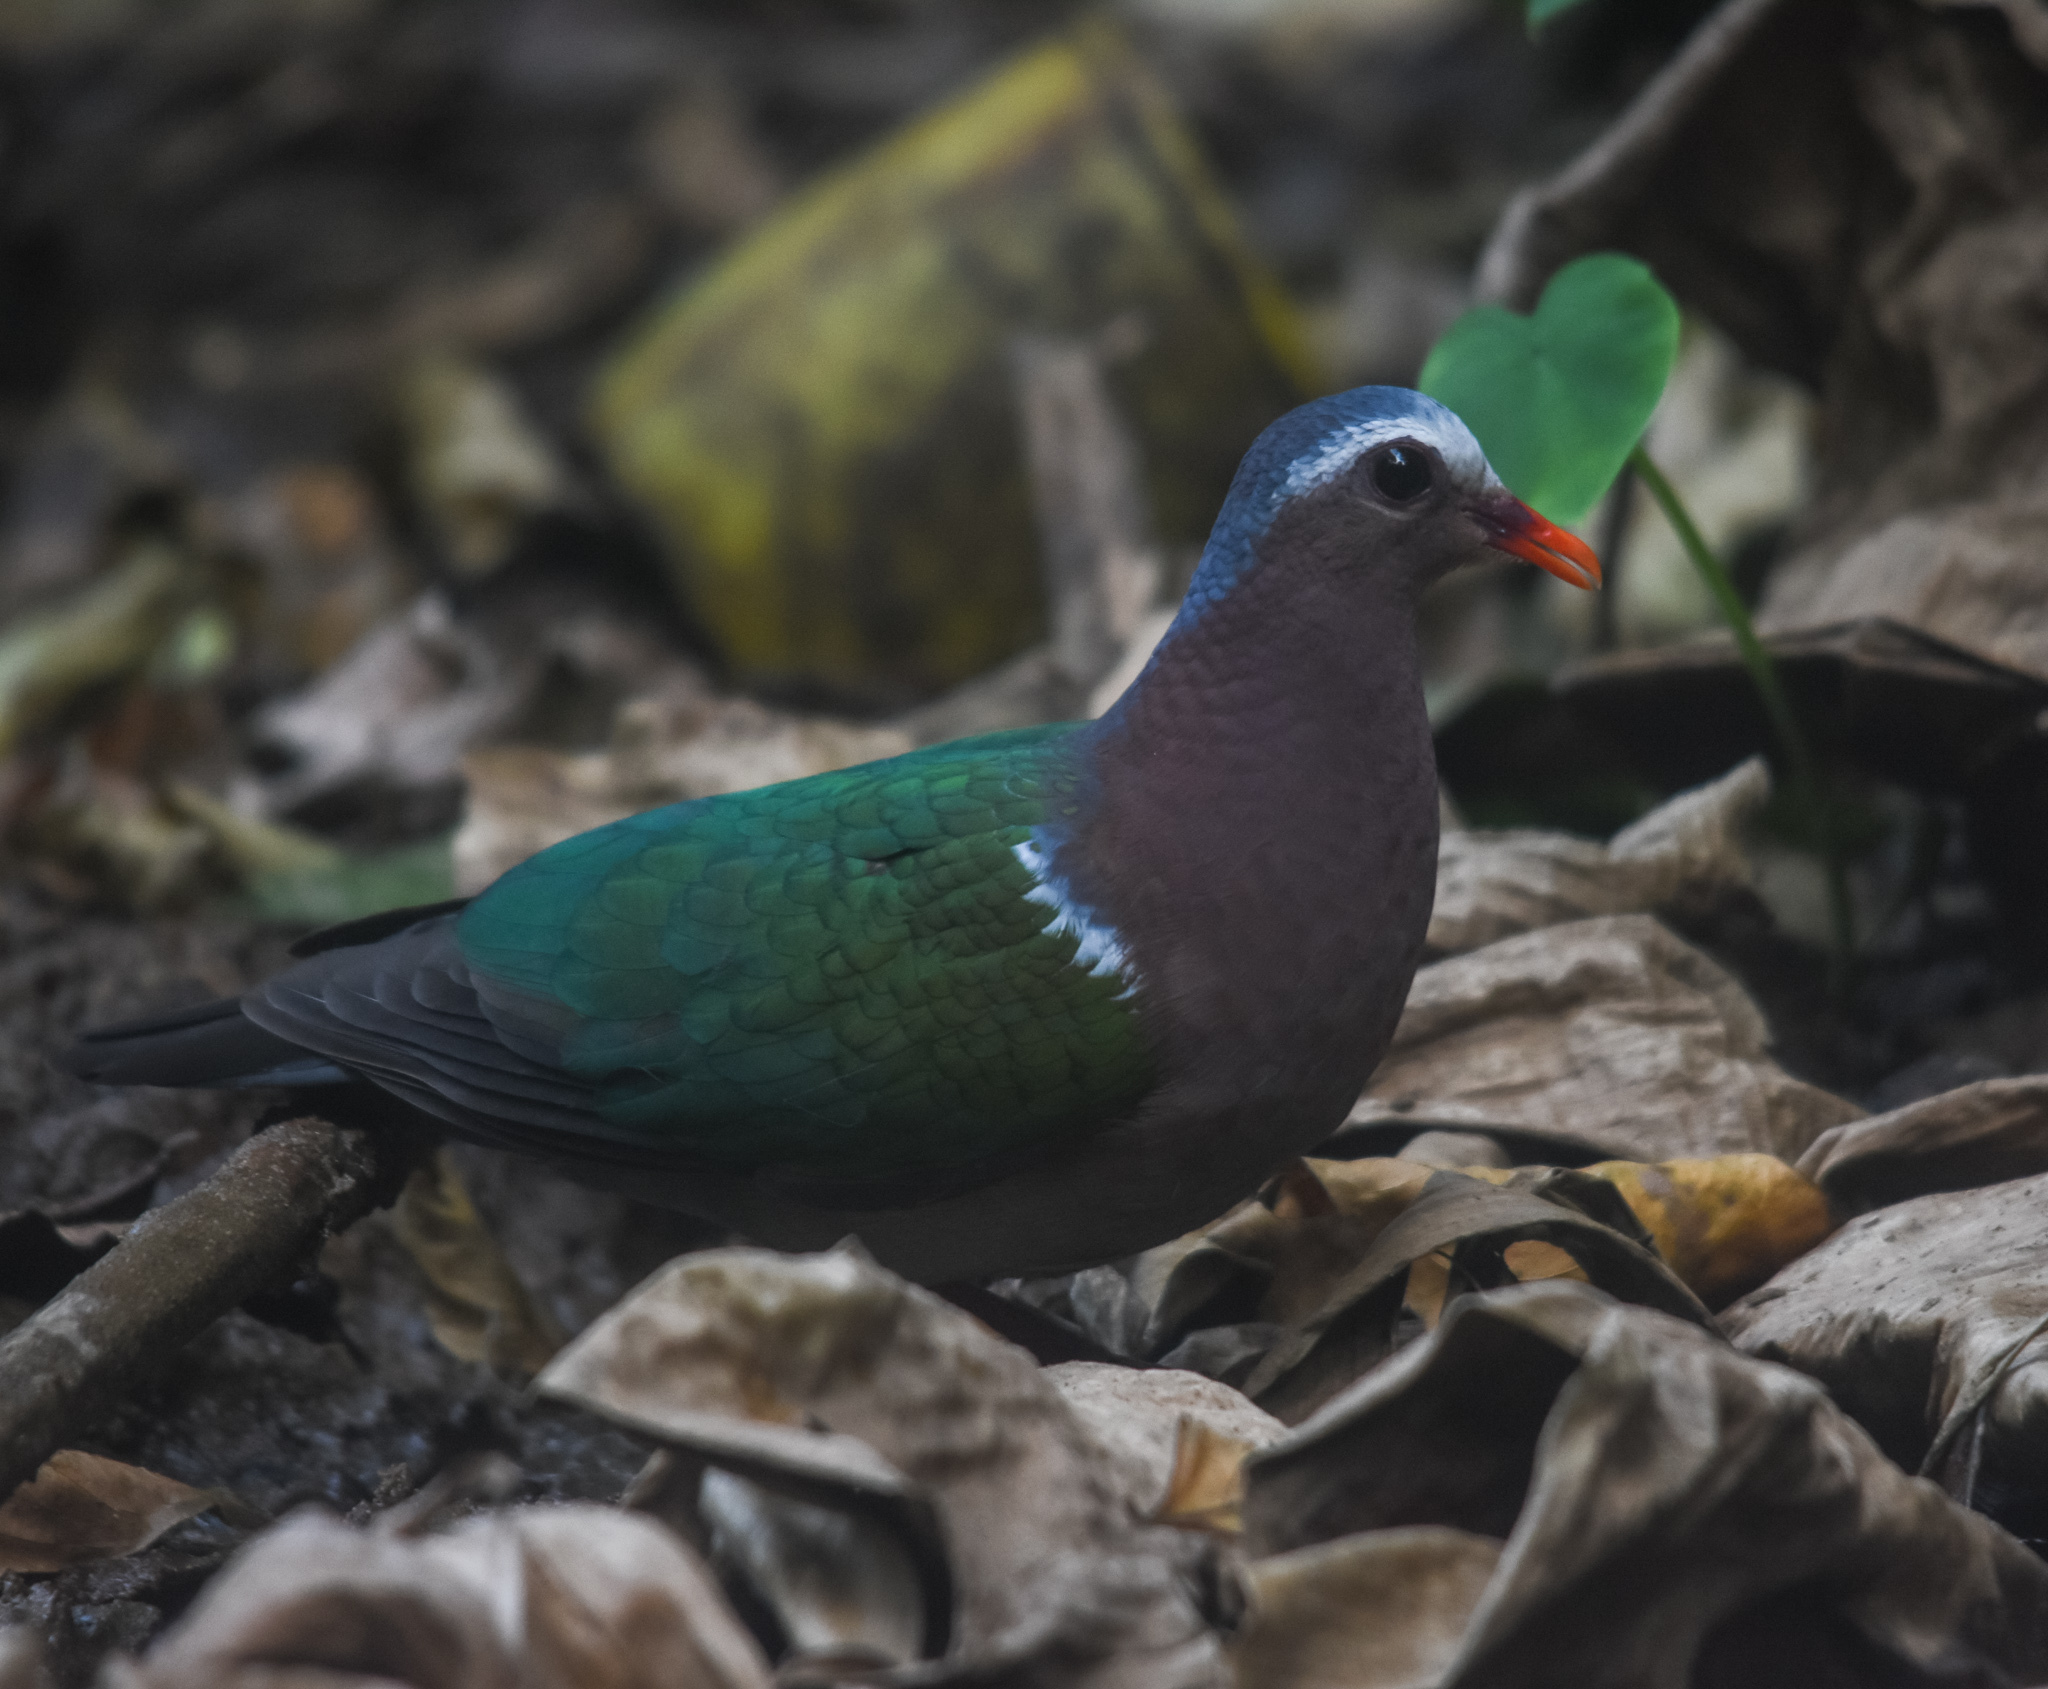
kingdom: Animalia
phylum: Chordata
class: Aves
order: Columbiformes
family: Columbidae
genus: Chalcophaps
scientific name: Chalcophaps indica
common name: Common emerald dove
